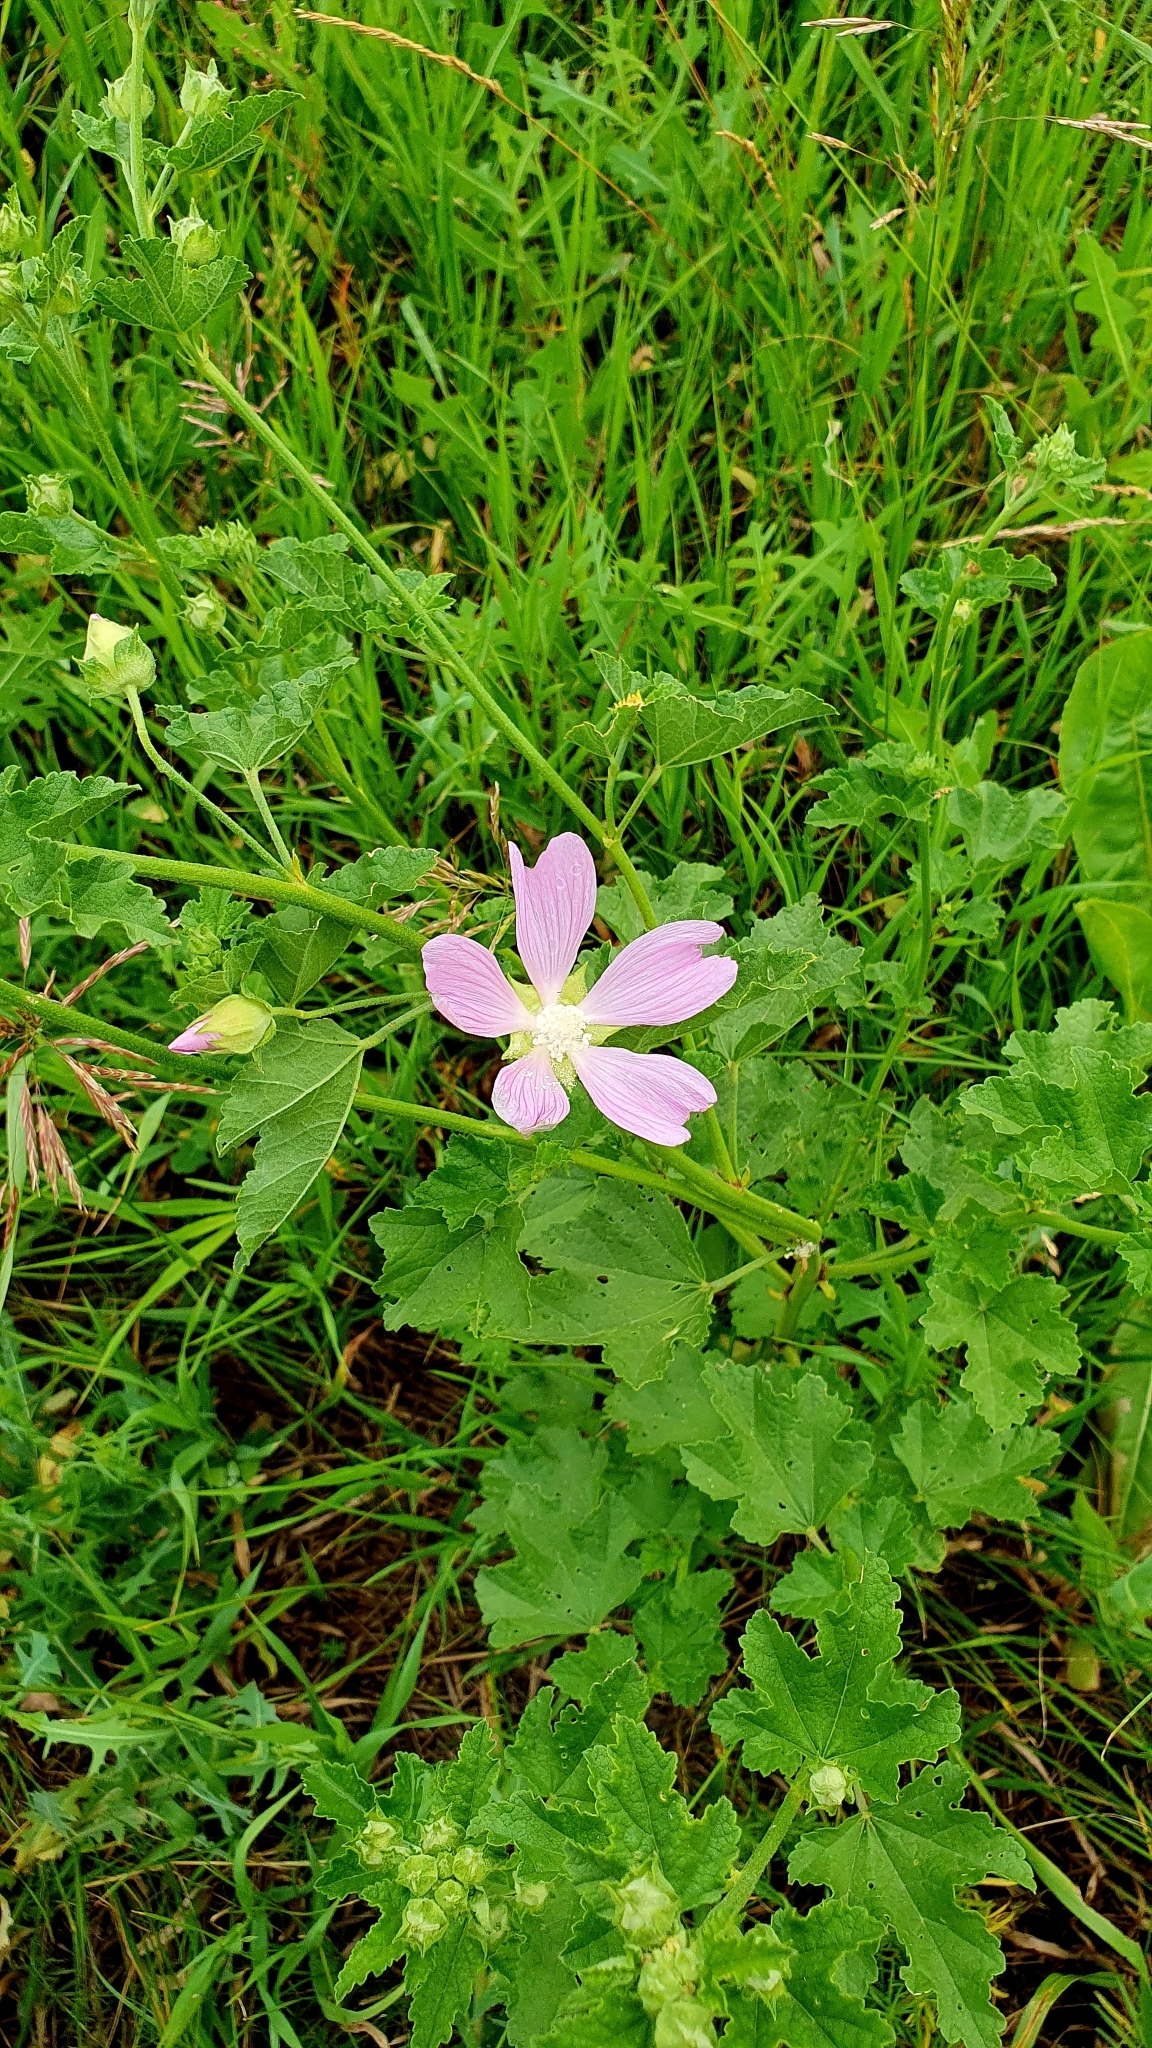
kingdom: Plantae
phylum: Tracheophyta
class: Magnoliopsida
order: Malvales
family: Malvaceae
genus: Malva
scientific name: Malva thuringiaca
